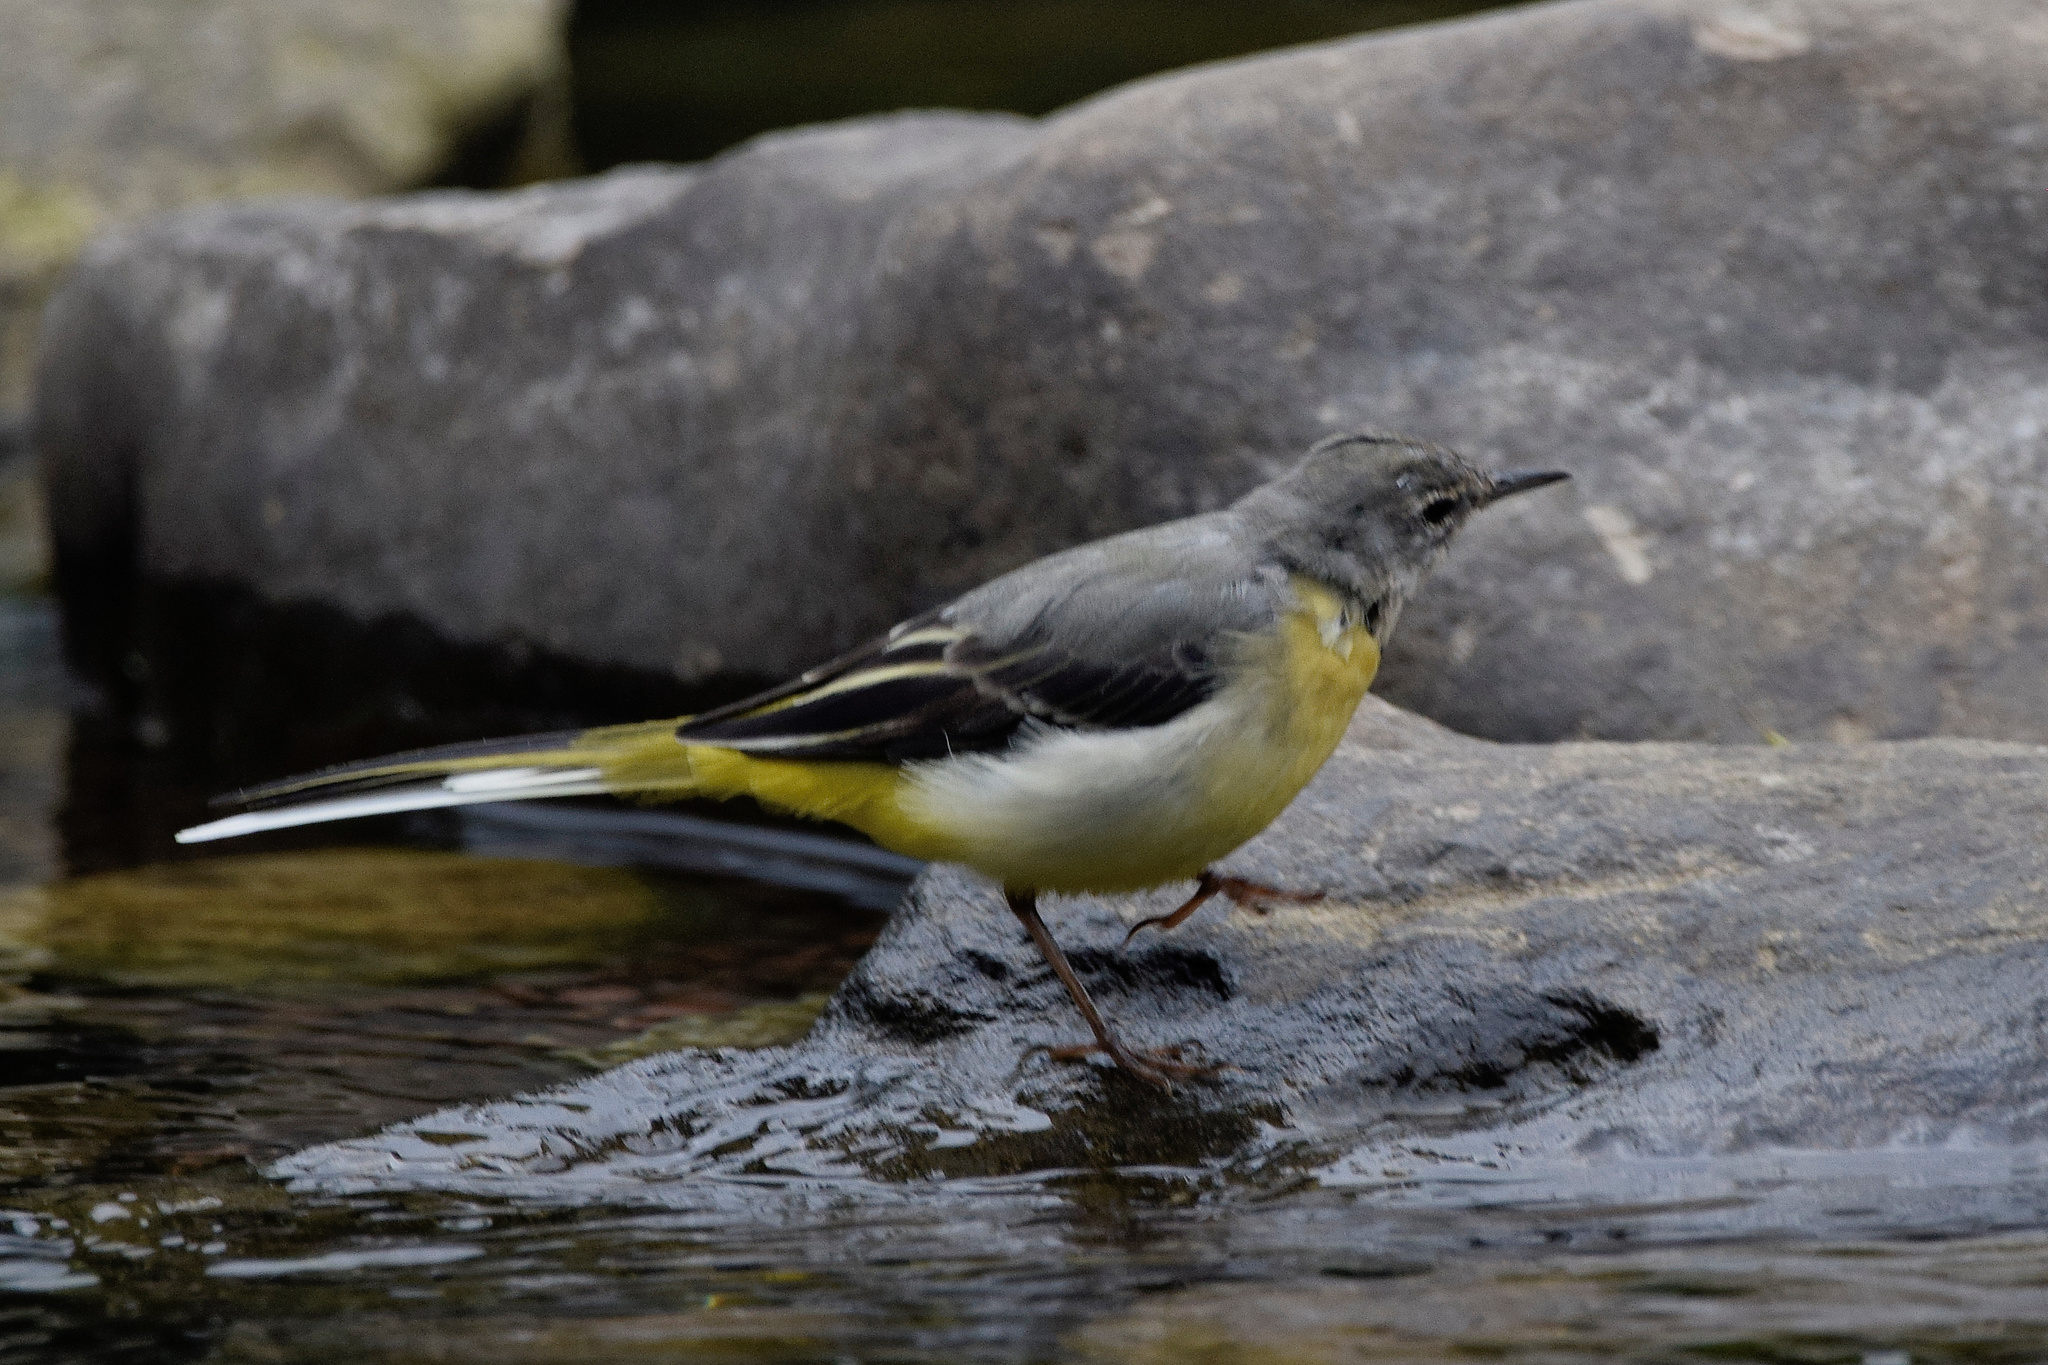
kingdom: Animalia
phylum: Chordata
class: Aves
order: Passeriformes
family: Motacillidae
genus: Motacilla
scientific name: Motacilla cinerea
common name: Grey wagtail
